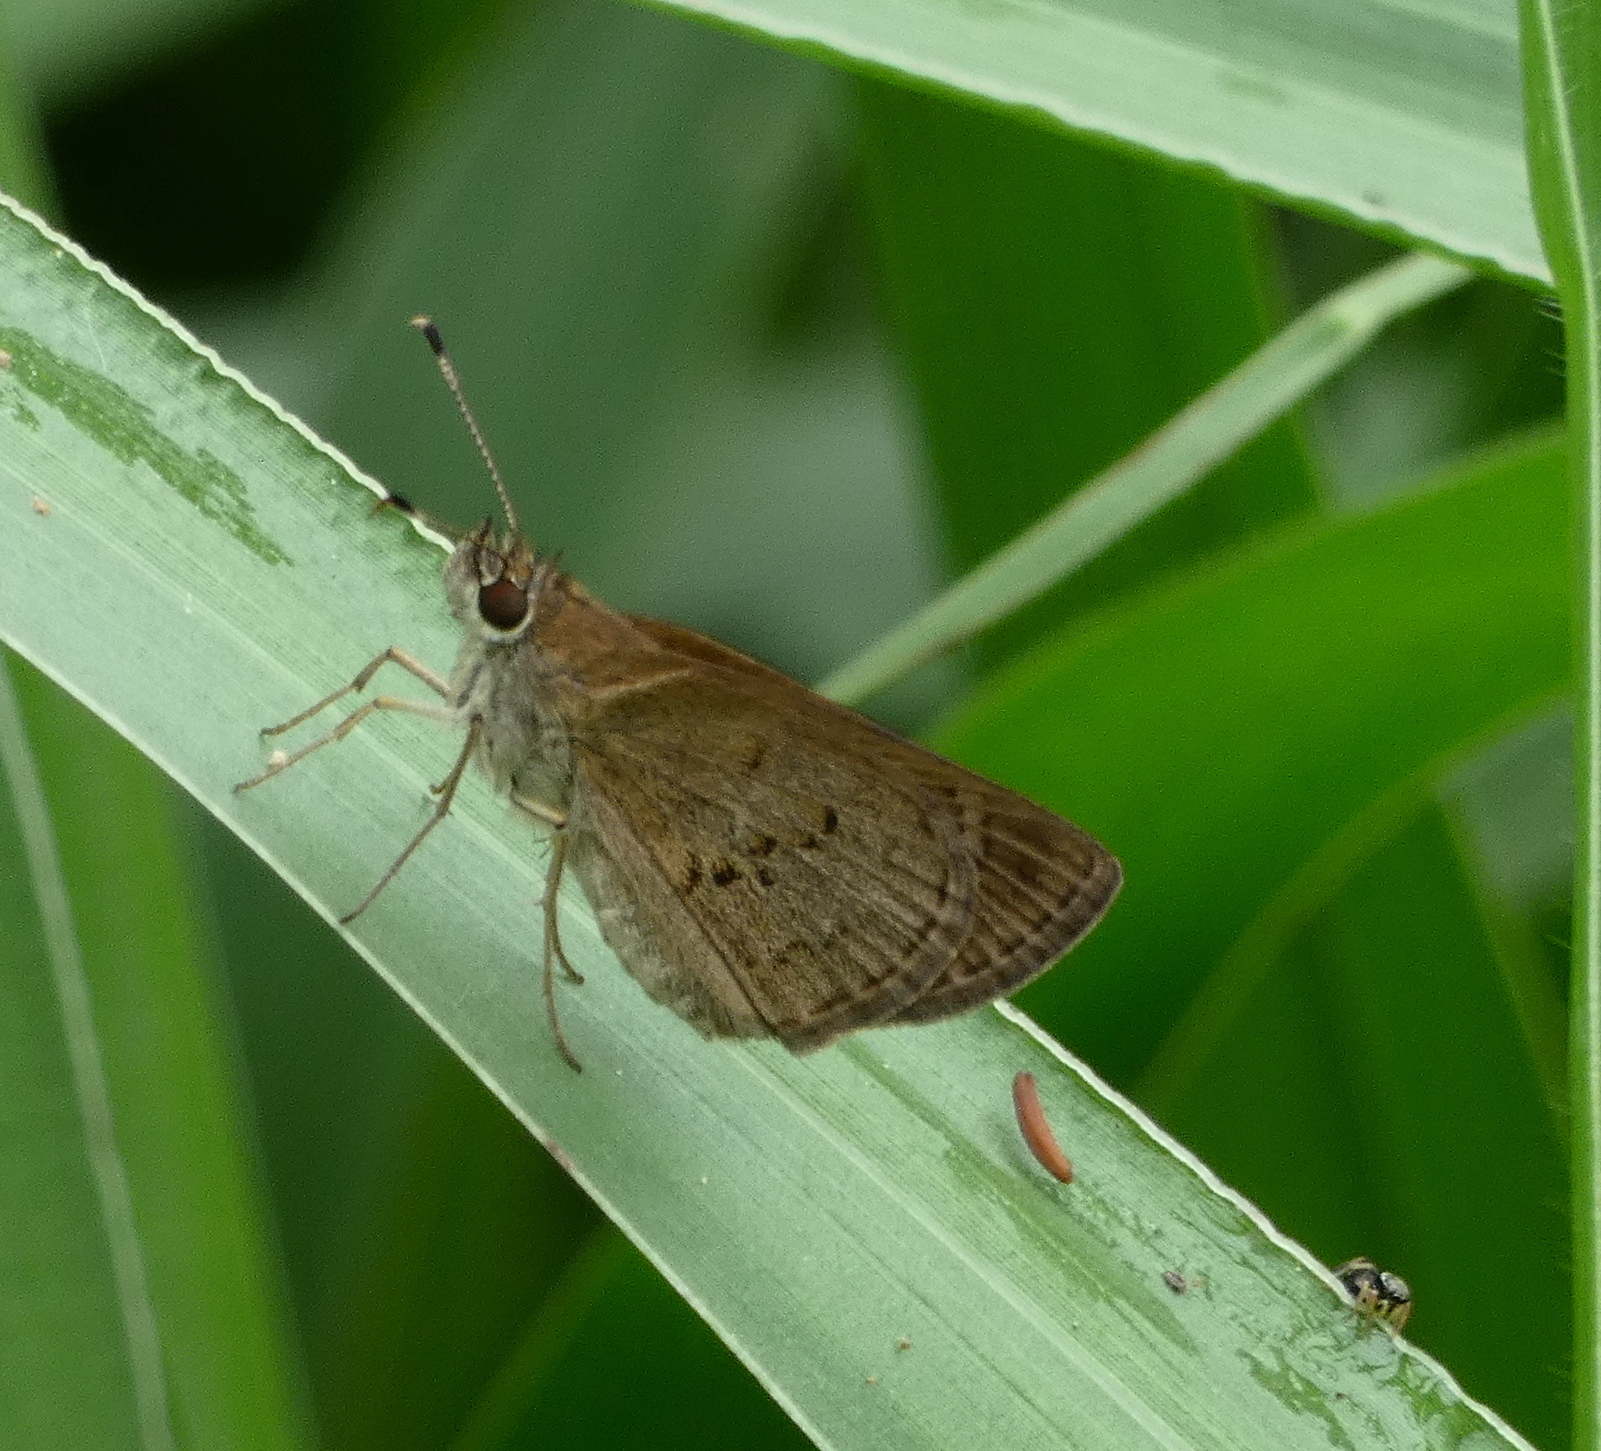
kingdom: Animalia
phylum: Arthropoda
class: Insecta
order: Lepidoptera
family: Hesperiidae
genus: Cymaenes
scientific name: Cymaenes gisca
